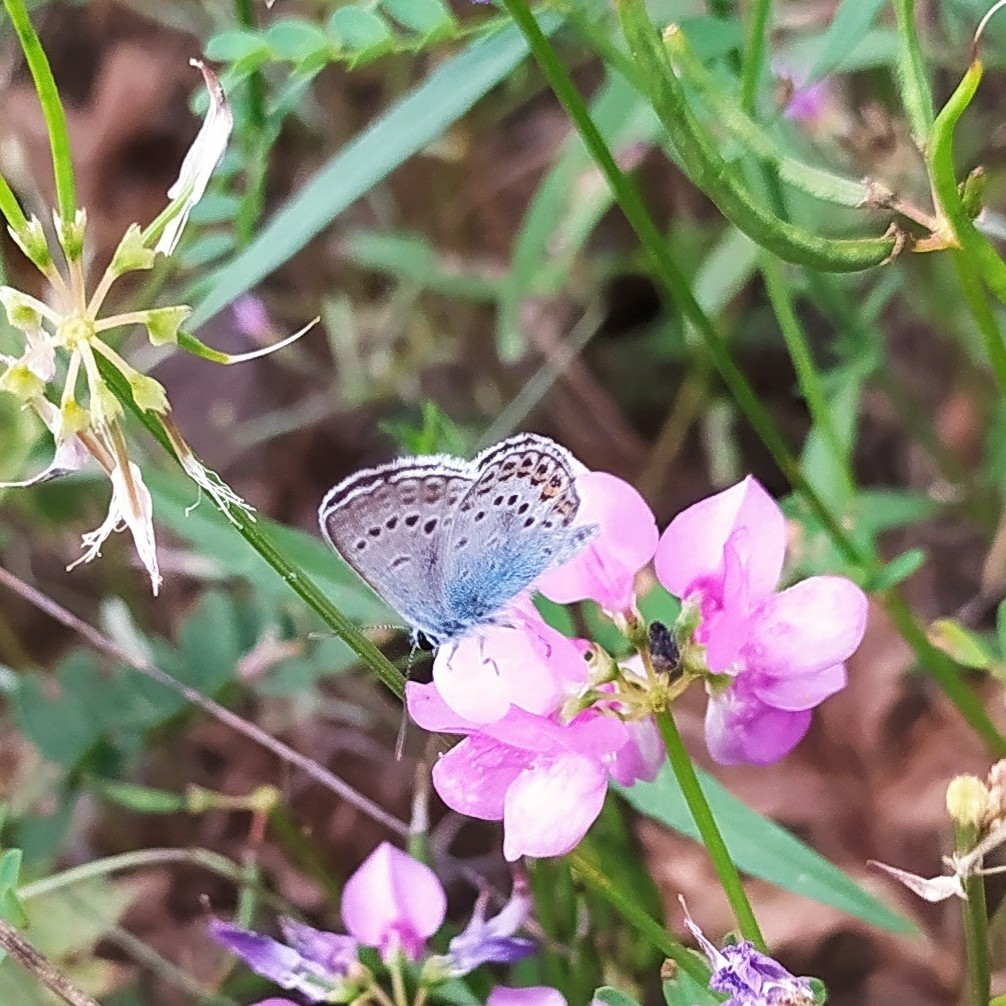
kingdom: Animalia
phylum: Arthropoda
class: Insecta
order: Lepidoptera
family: Lycaenidae
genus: Plebejus
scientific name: Plebejus argus
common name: Silver-studded blue
